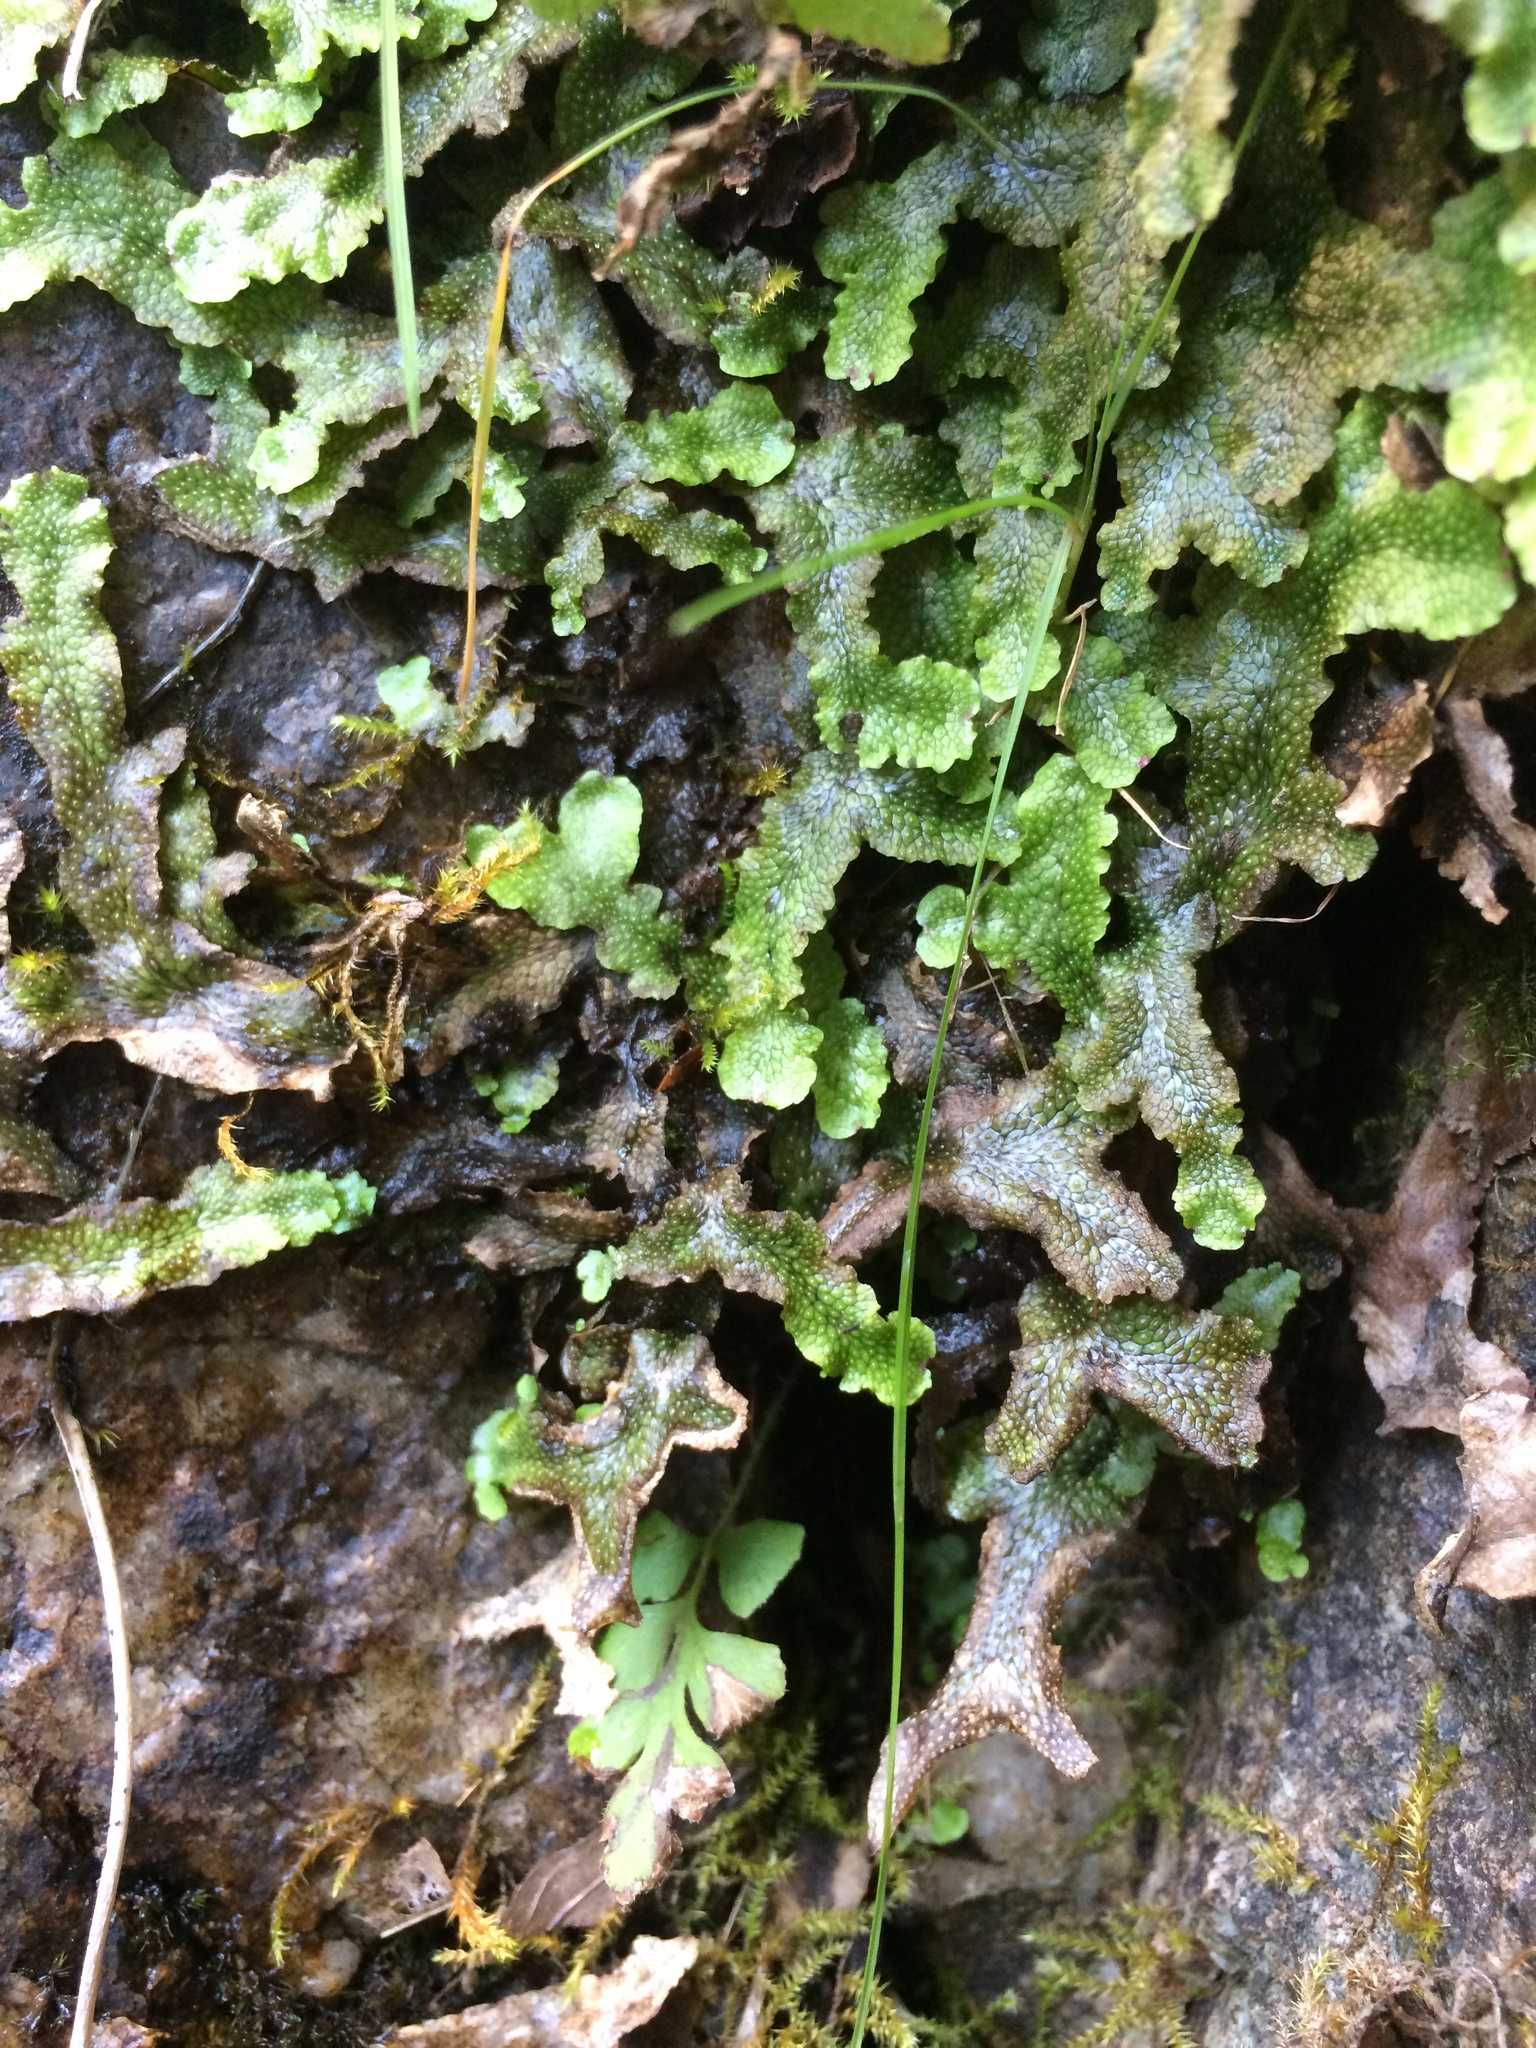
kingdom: Plantae
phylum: Marchantiophyta
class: Marchantiopsida
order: Marchantiales
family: Conocephalaceae
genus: Conocephalum
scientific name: Conocephalum salebrosum
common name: Cat-tongue liverwort
